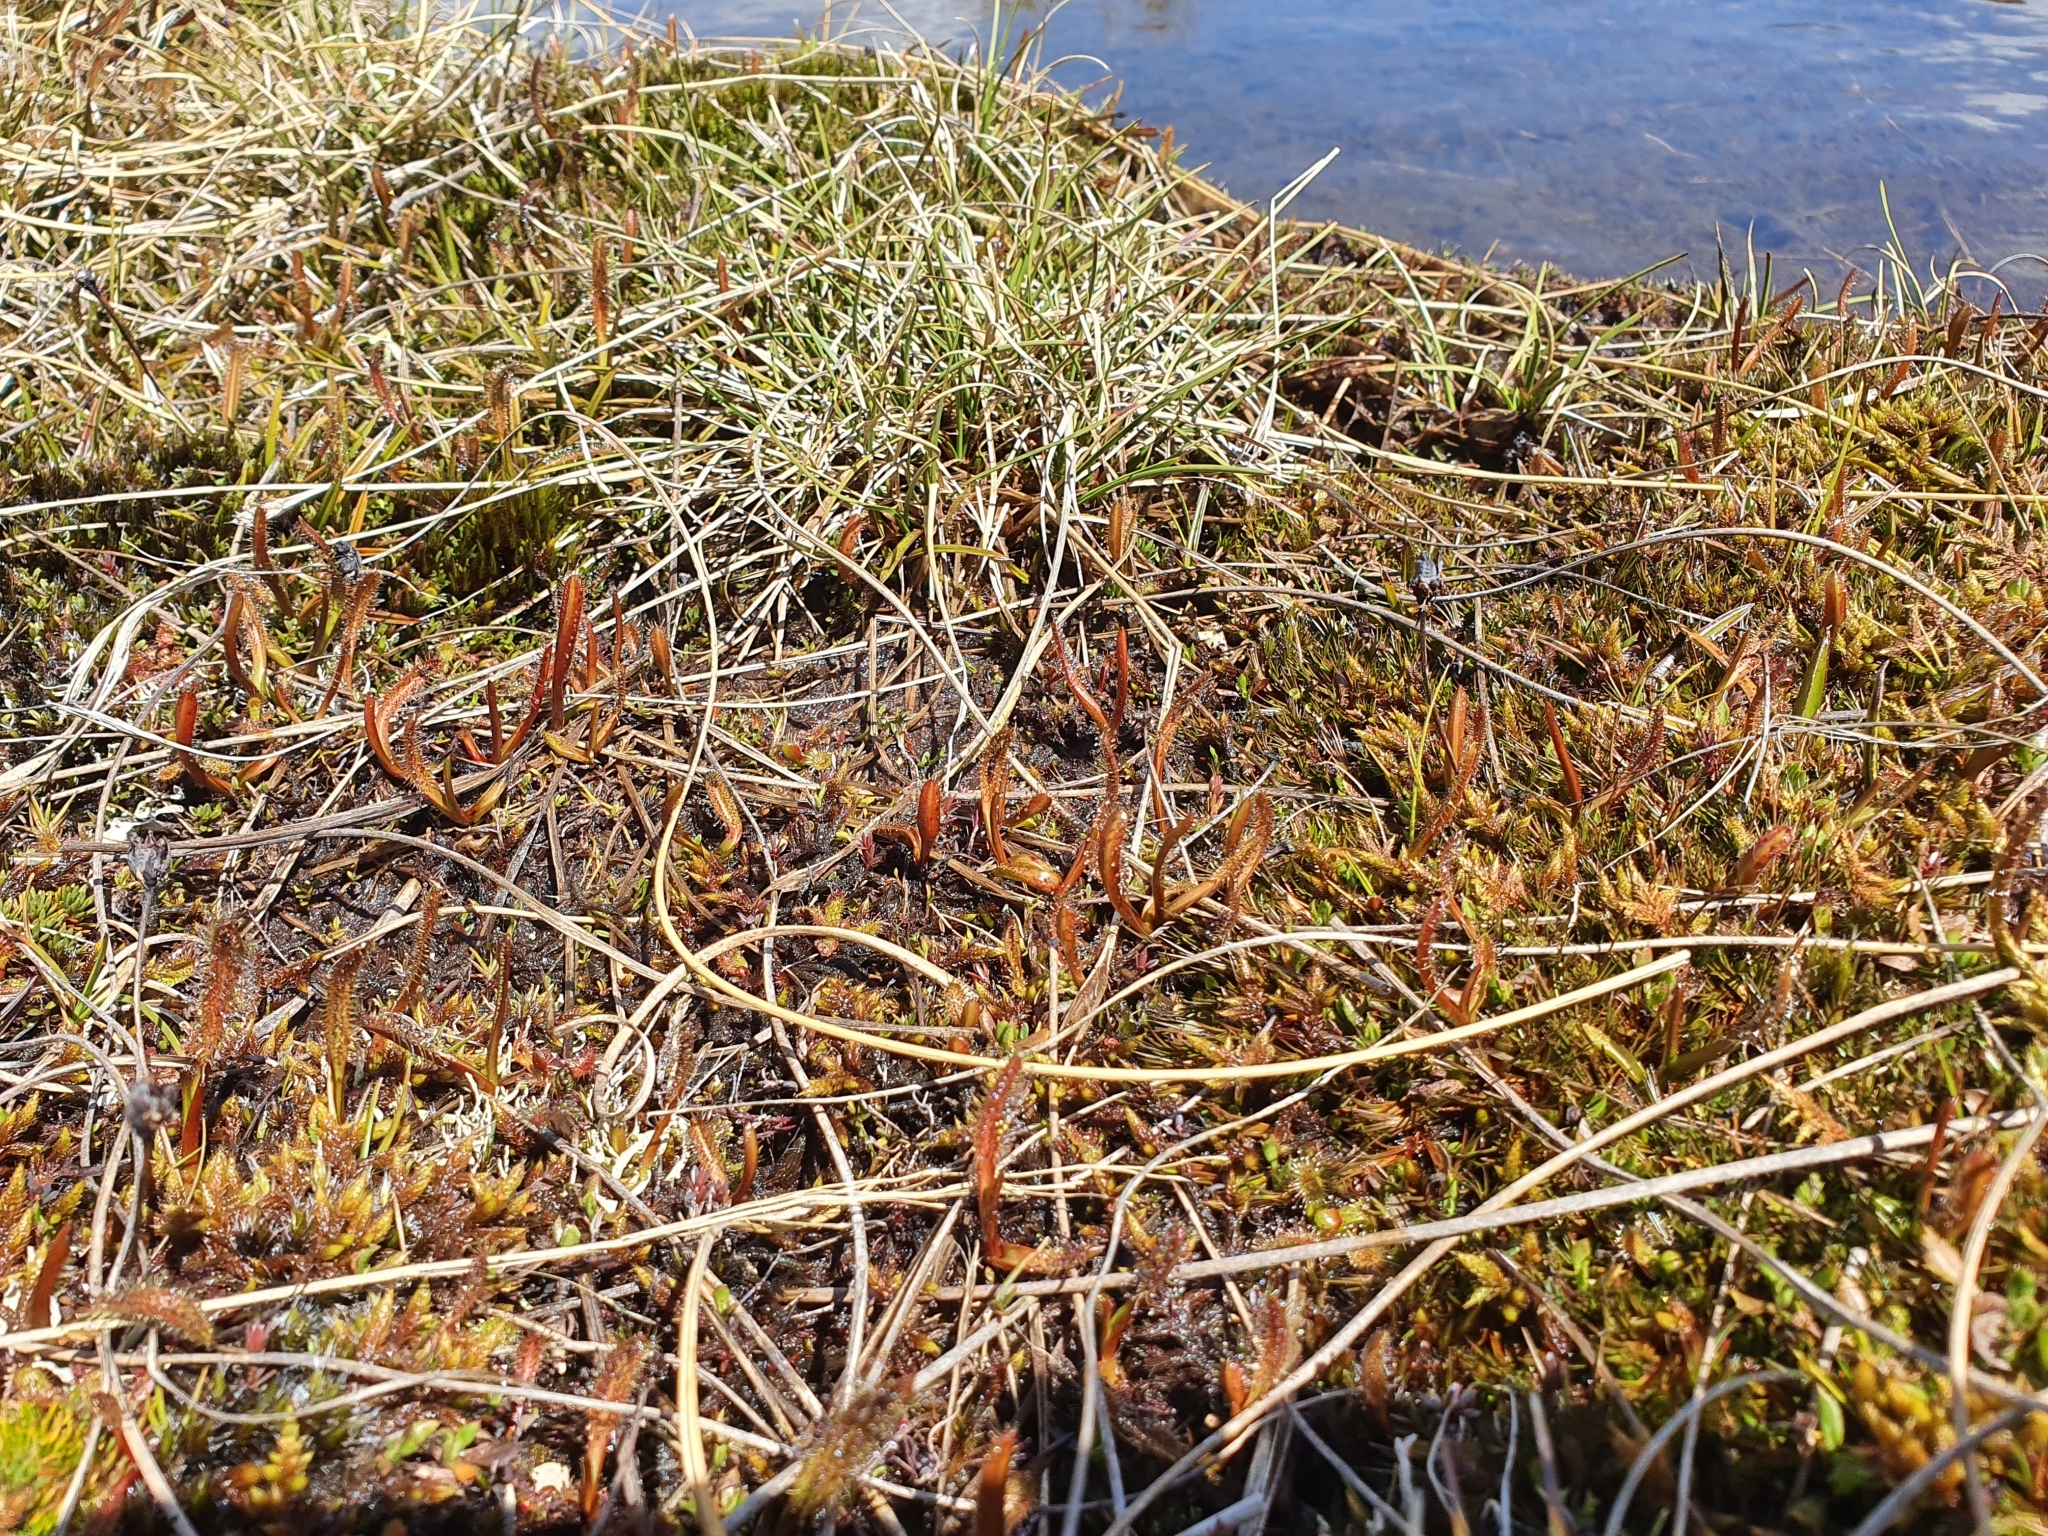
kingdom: Plantae
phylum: Tracheophyta
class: Magnoliopsida
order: Caryophyllales
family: Droseraceae
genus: Drosera
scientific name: Drosera arcturi
